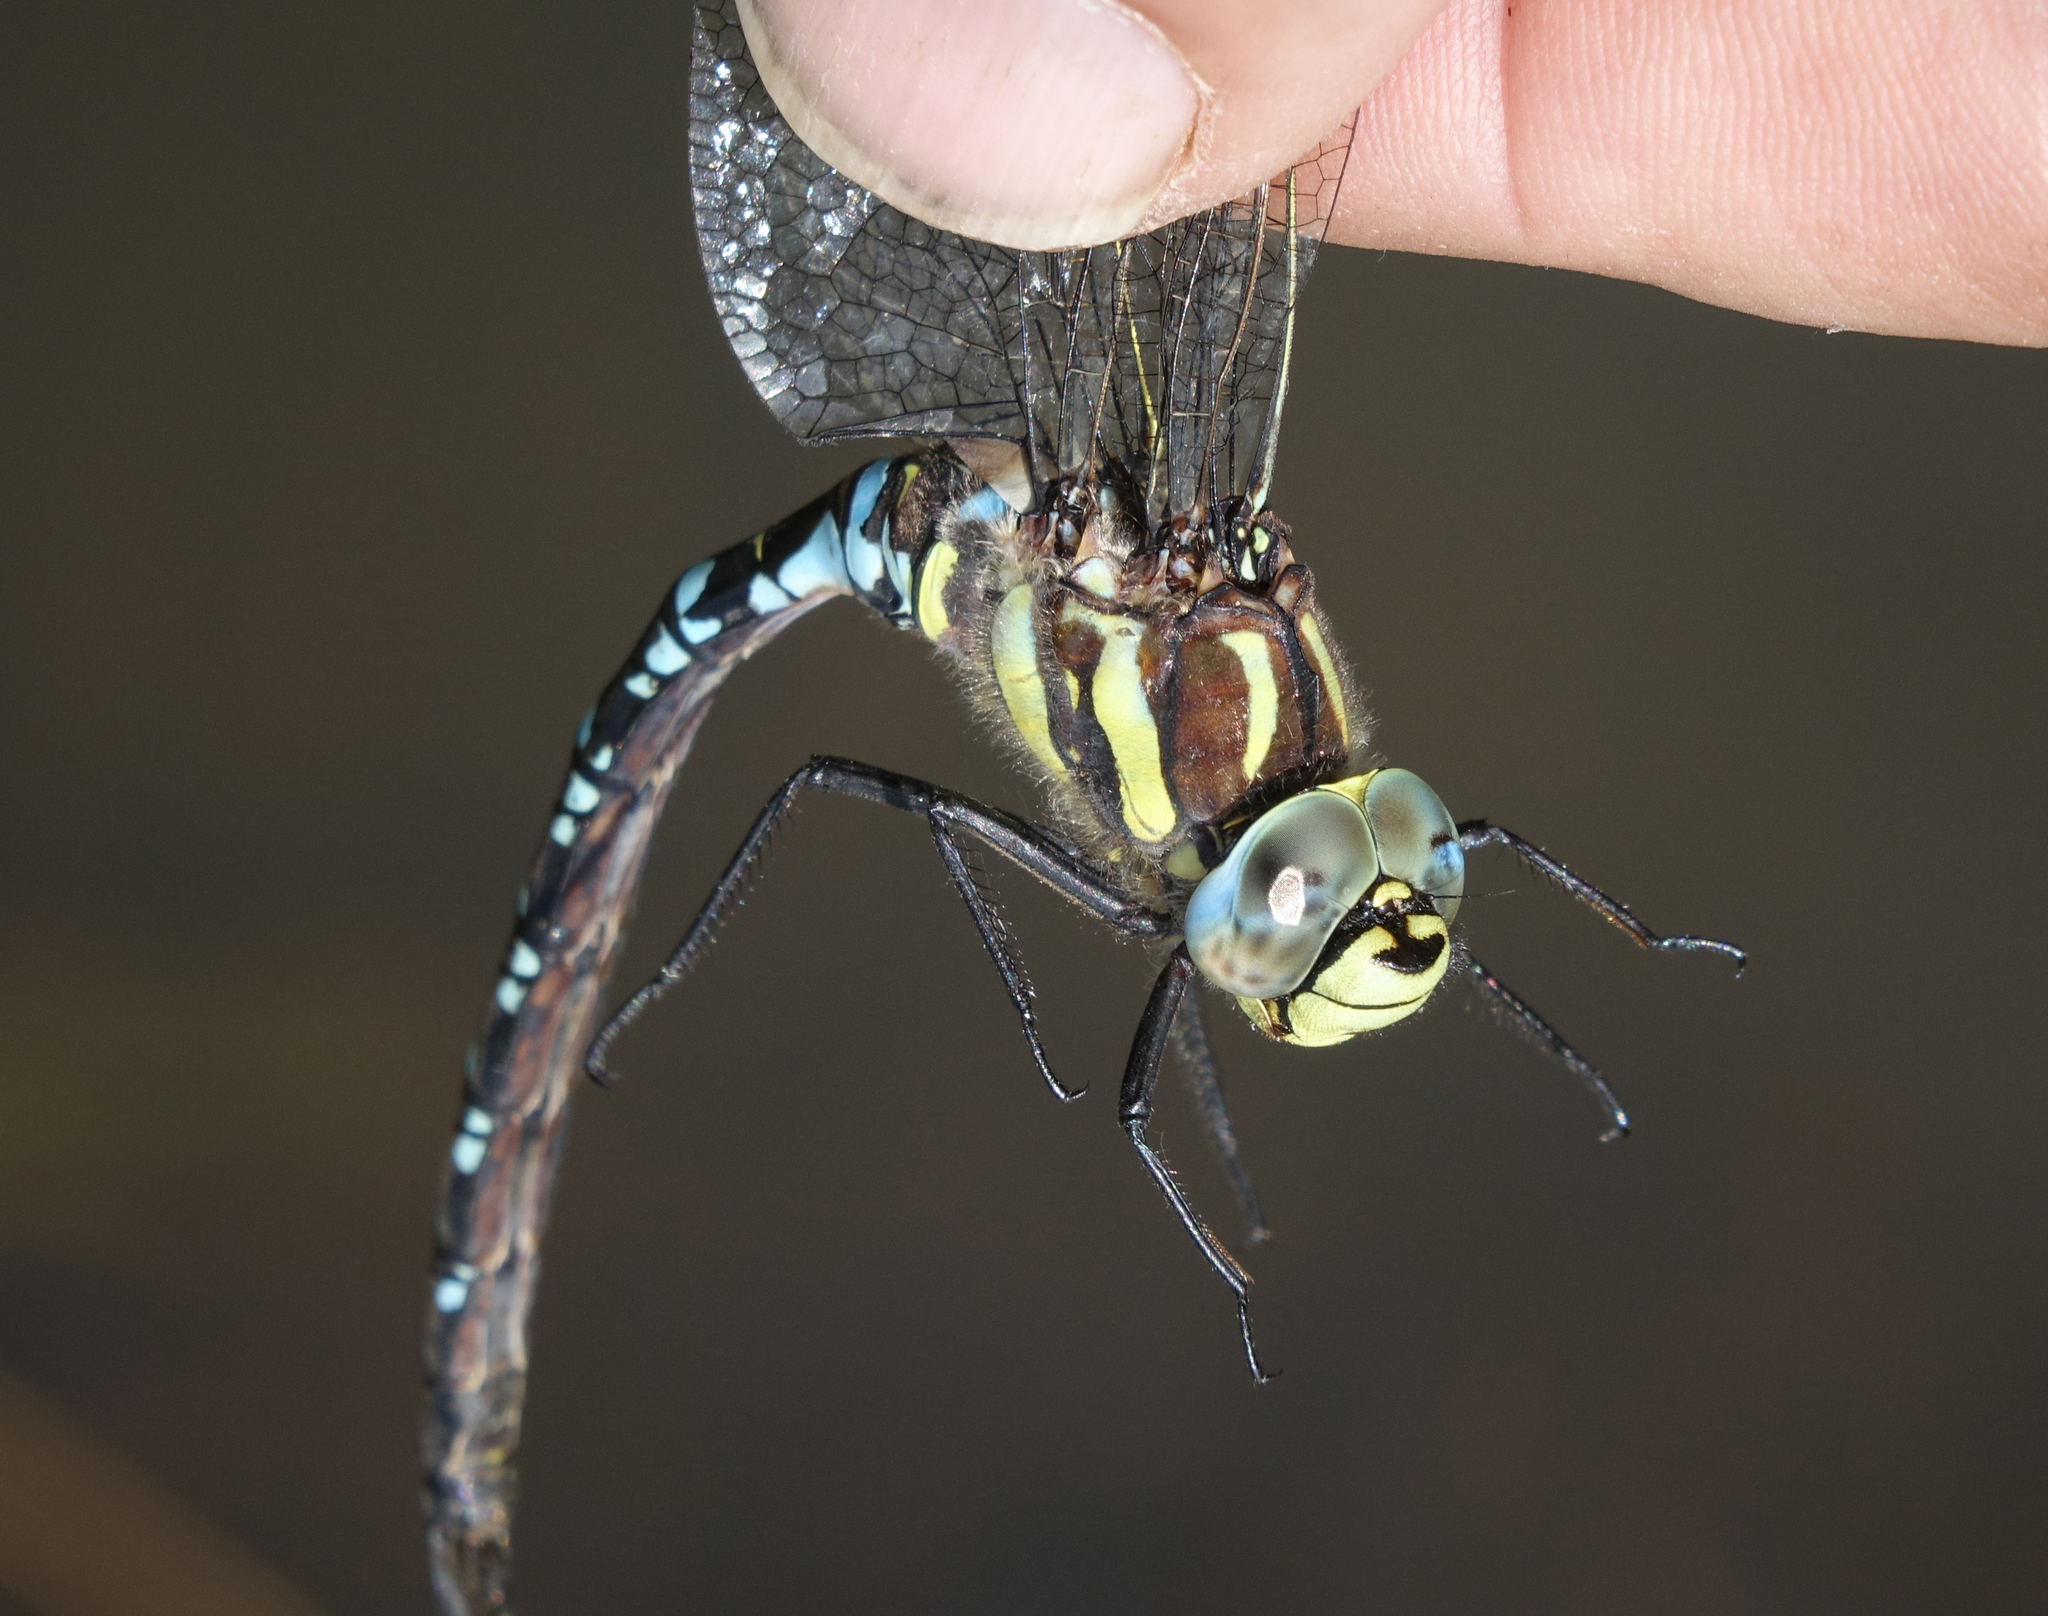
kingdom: Animalia
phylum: Arthropoda
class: Insecta
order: Odonata
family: Aeshnidae
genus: Aeshna
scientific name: Aeshna juncea
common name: Moorland hawker
